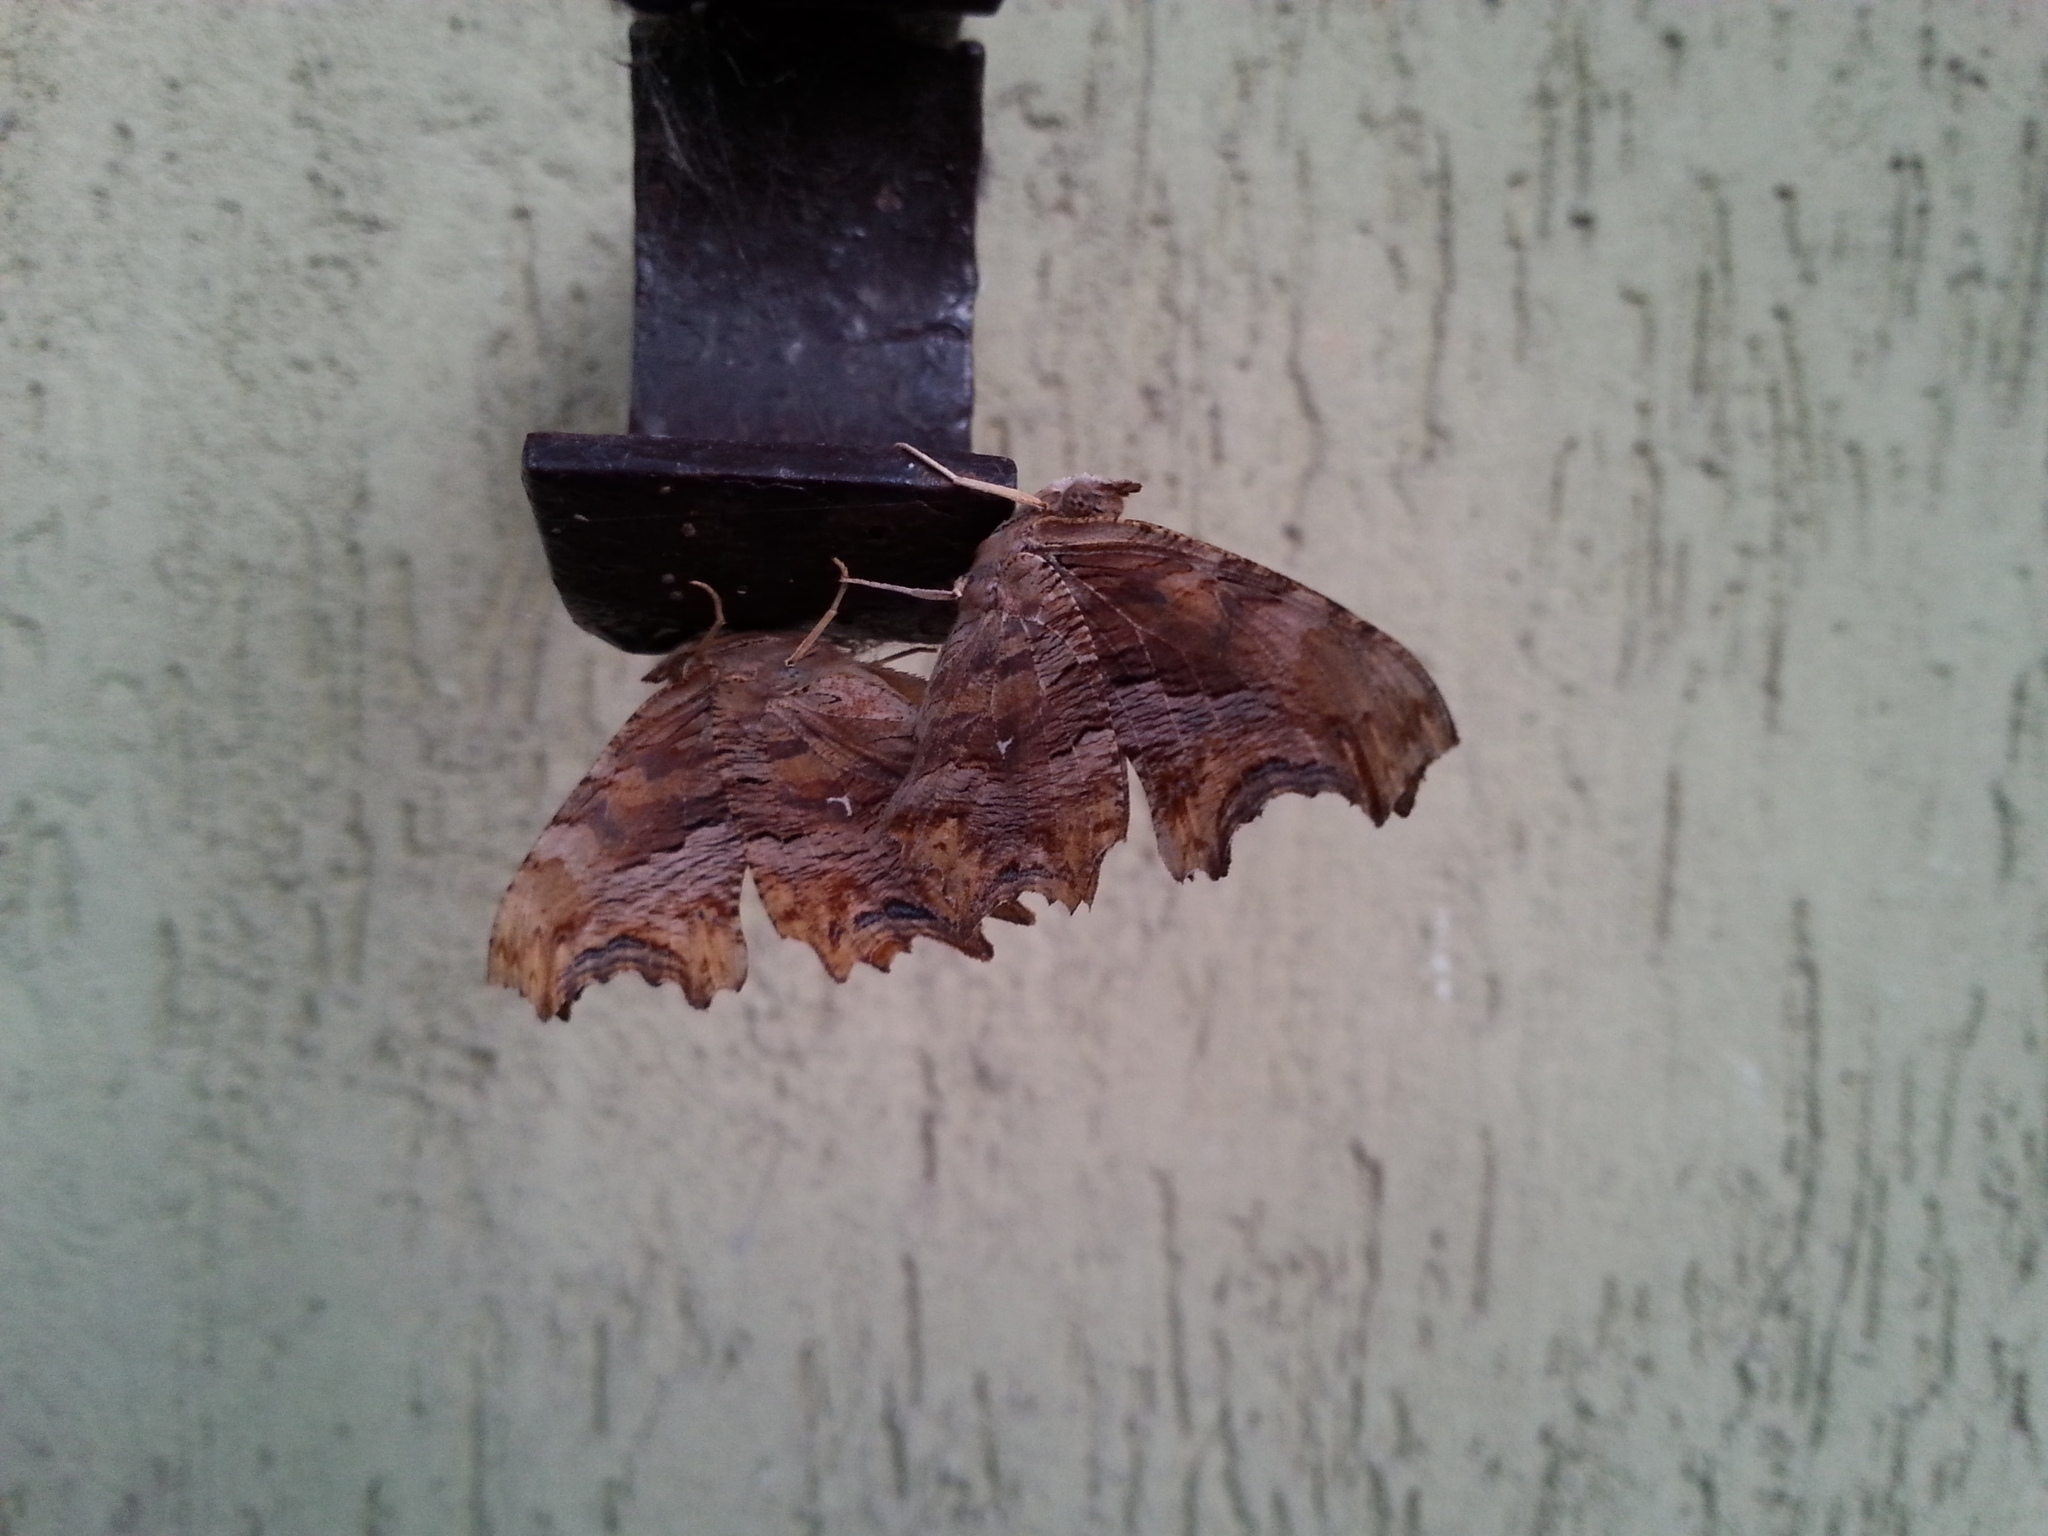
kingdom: Animalia
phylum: Arthropoda
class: Insecta
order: Lepidoptera
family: Nymphalidae
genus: Polygonia
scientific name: Polygonia egea
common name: Southern comma
